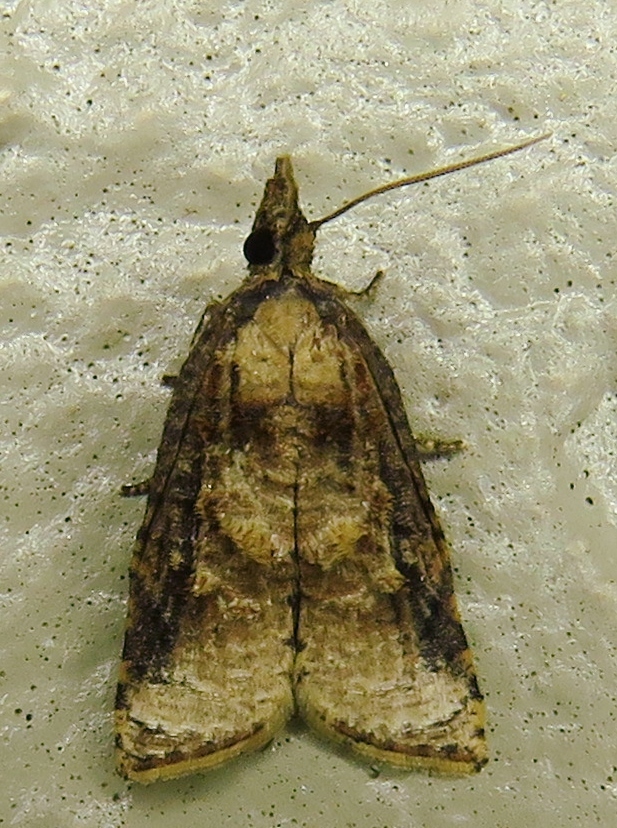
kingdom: Animalia
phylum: Arthropoda
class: Insecta
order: Lepidoptera
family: Tortricidae
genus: Platynota
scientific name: Platynota rostrana
